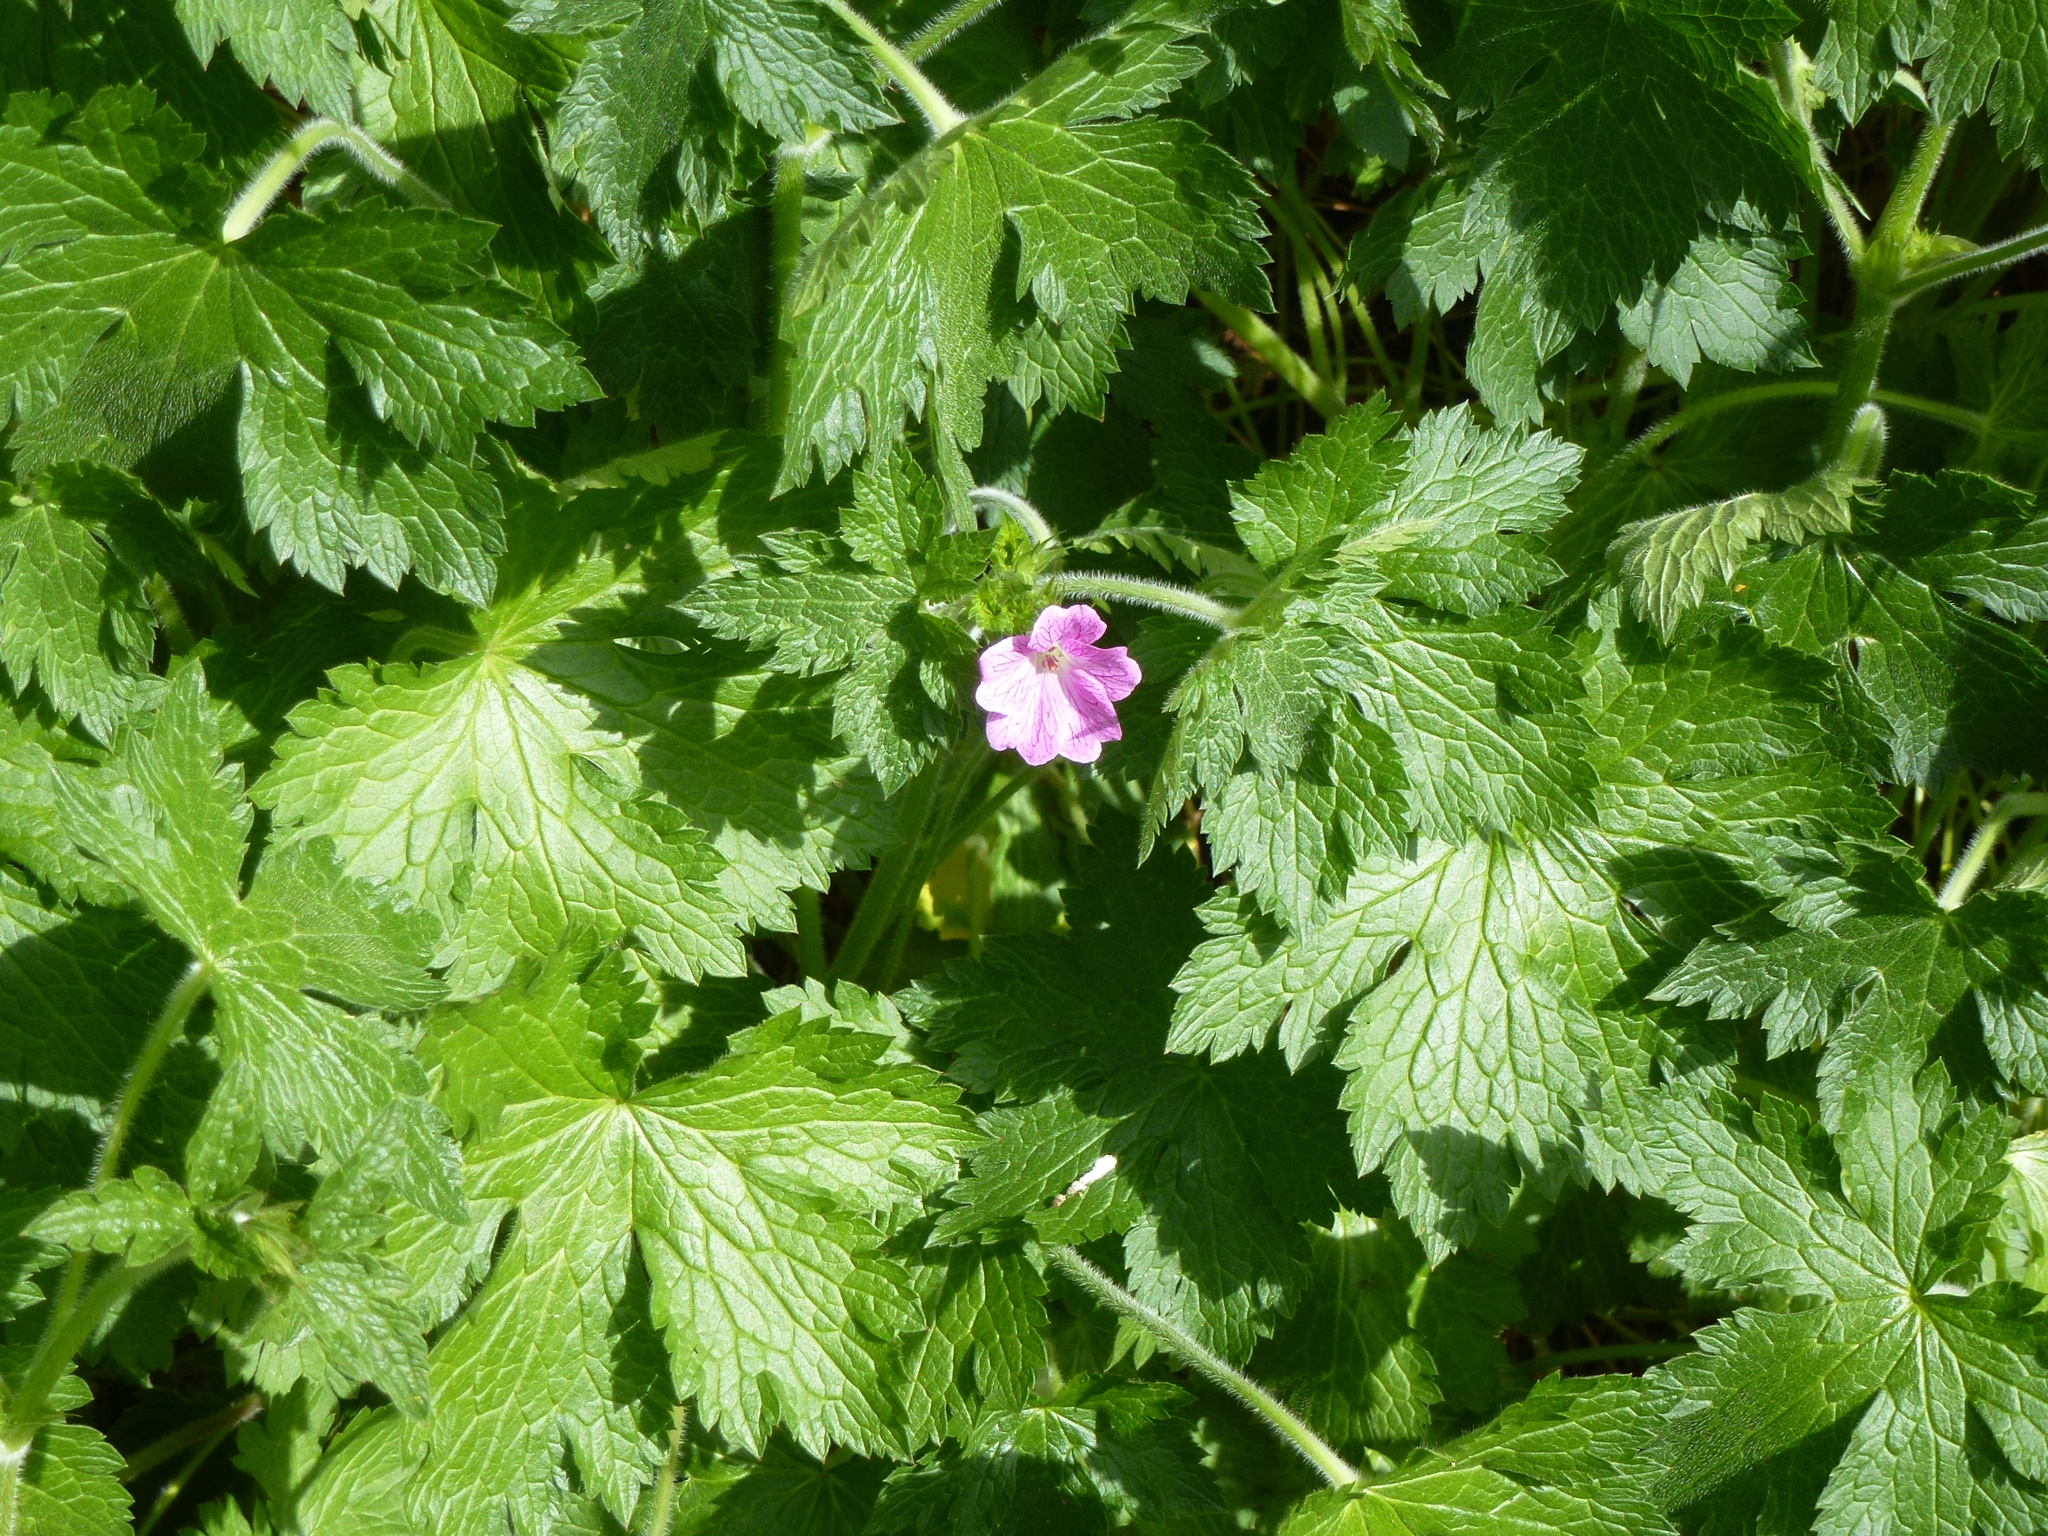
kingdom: Plantae
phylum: Tracheophyta
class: Magnoliopsida
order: Geraniales
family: Geraniaceae
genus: Geranium
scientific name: Geranium oxonianum
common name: Druce's crane's-bill
